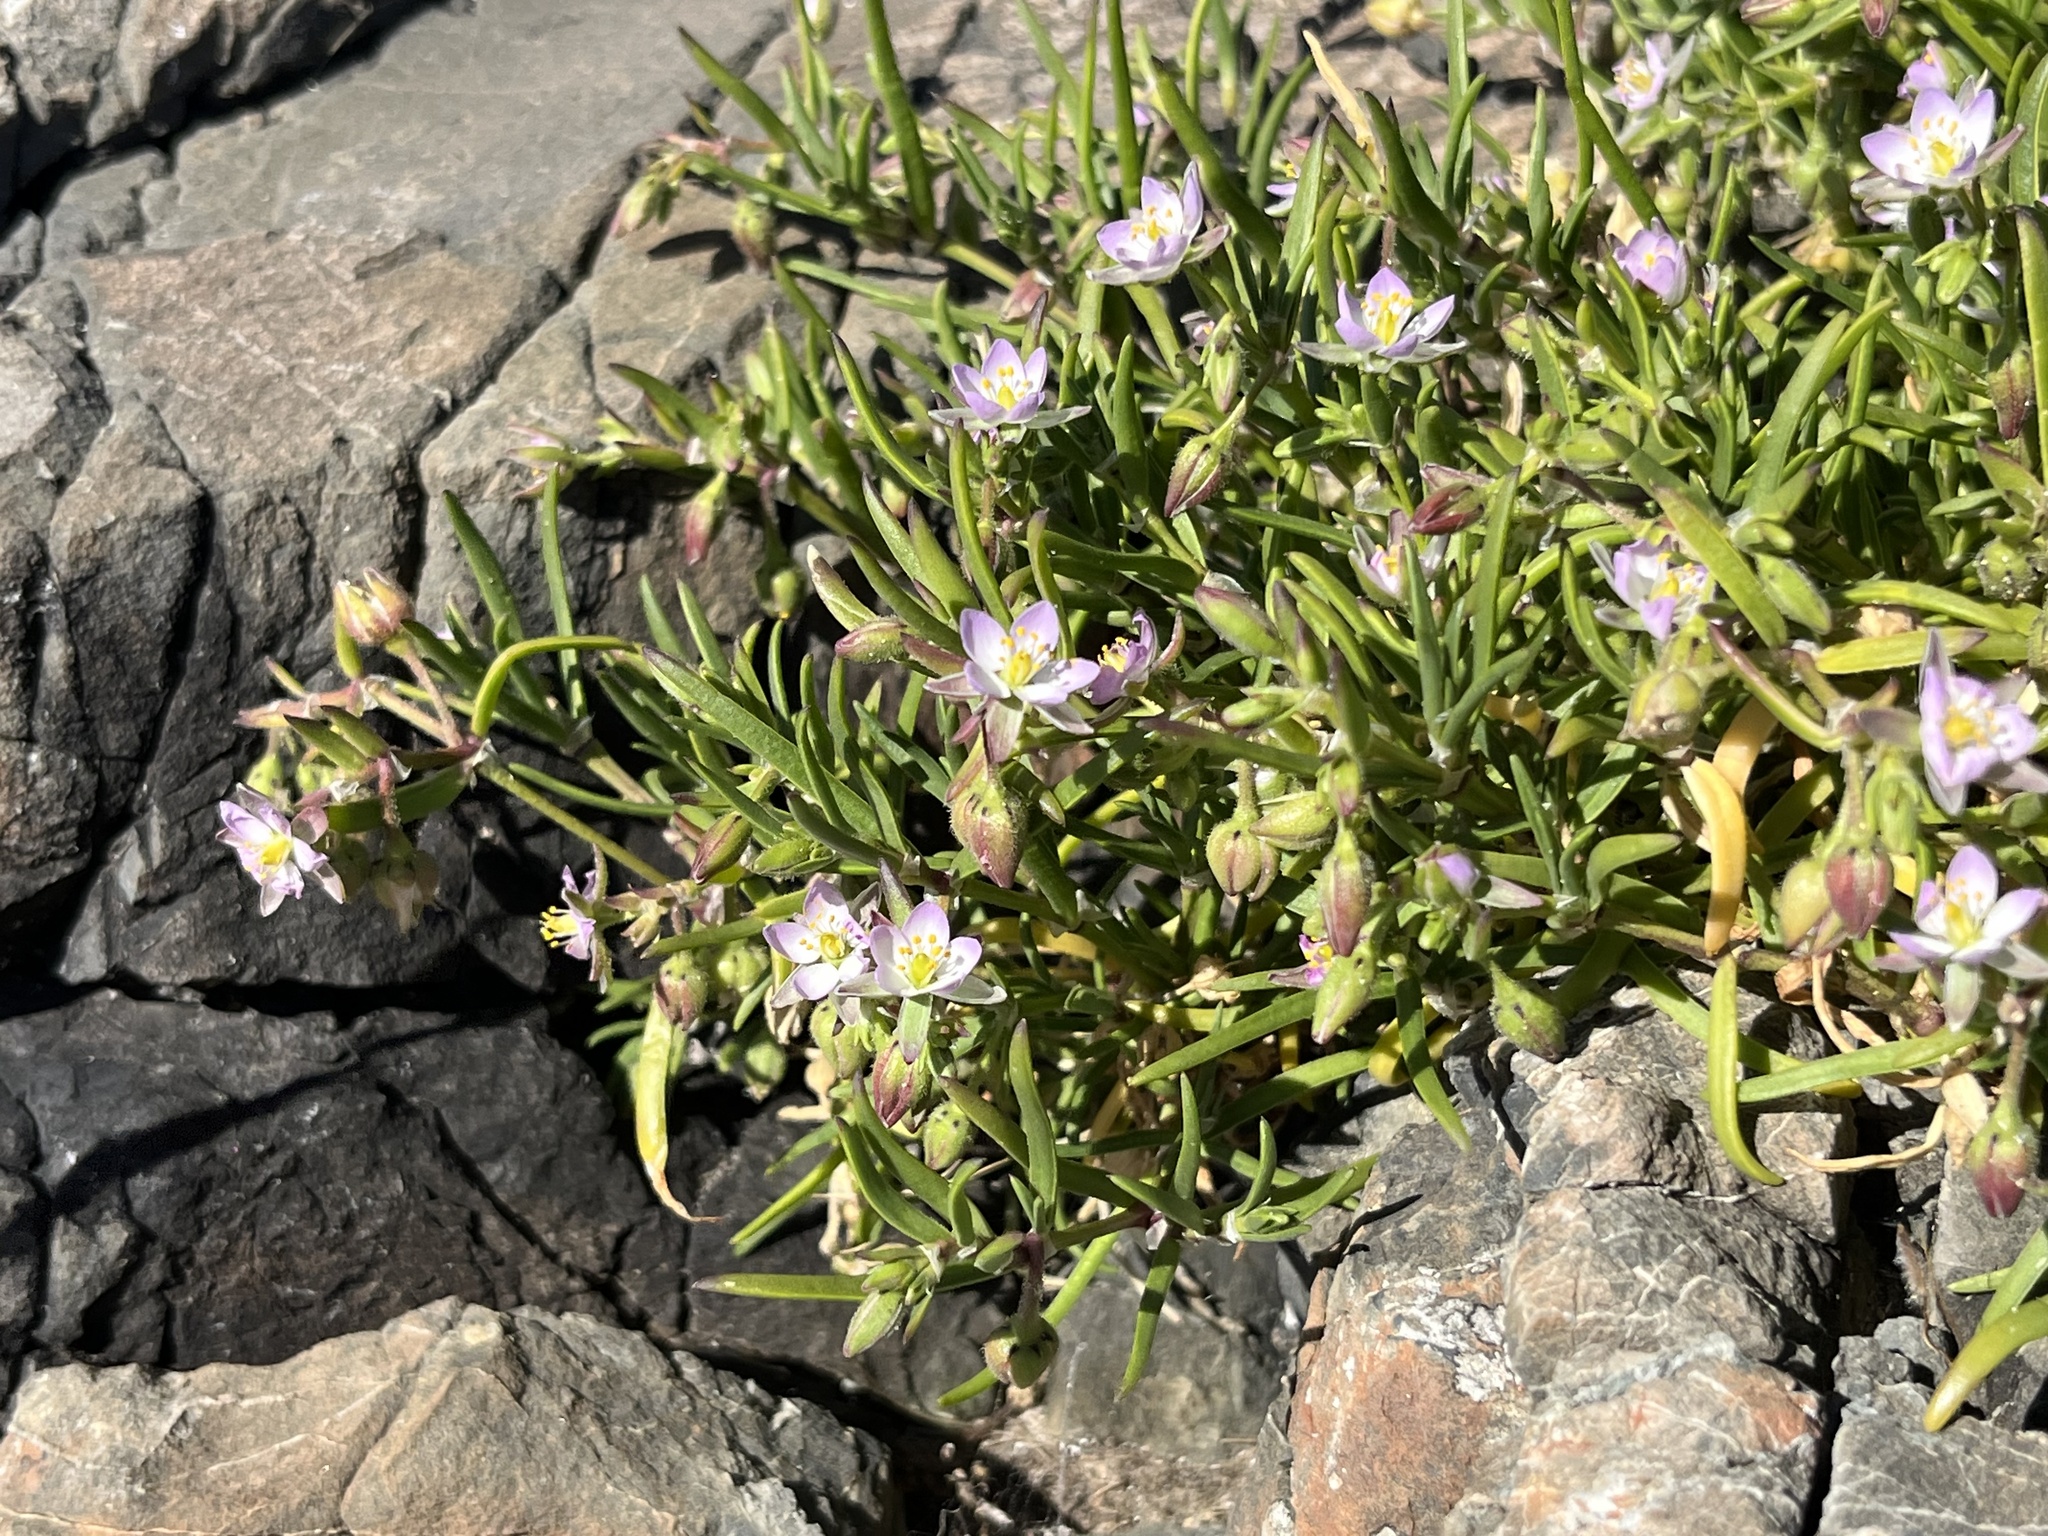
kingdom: Plantae
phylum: Tracheophyta
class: Magnoliopsida
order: Caryophyllales
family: Caryophyllaceae
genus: Spergularia
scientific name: Spergularia marina
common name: Lesser sea-spurrey
